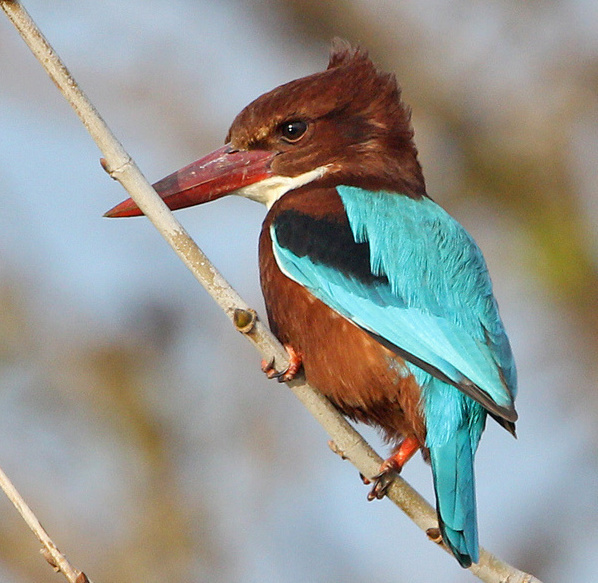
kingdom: Animalia
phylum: Chordata
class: Aves
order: Coraciiformes
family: Alcedinidae
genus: Halcyon
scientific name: Halcyon smyrnensis
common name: White-throated kingfisher
